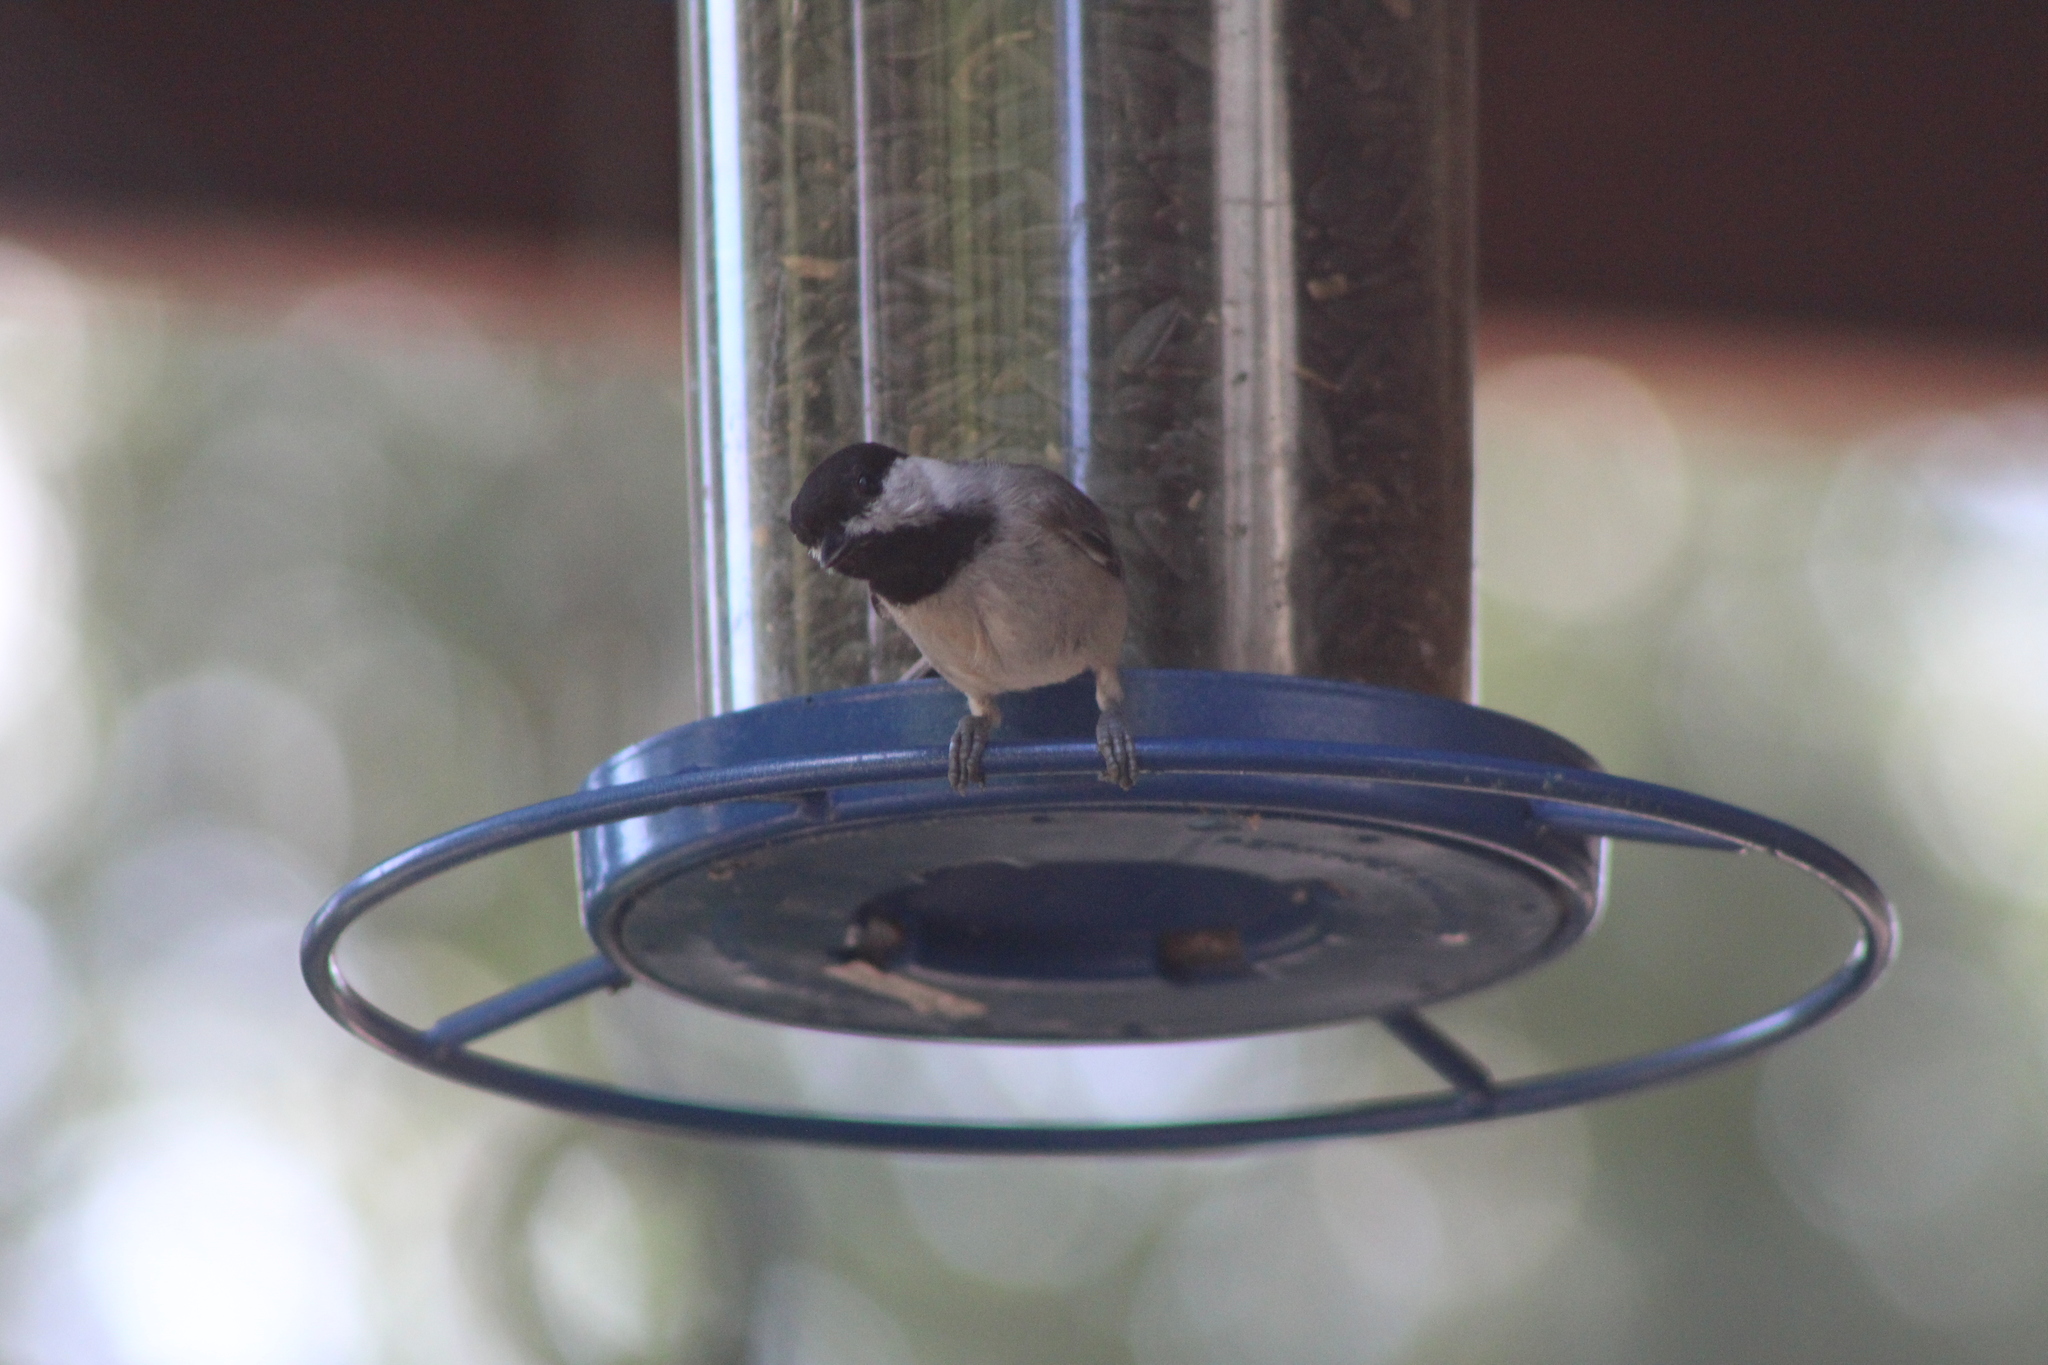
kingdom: Animalia
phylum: Chordata
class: Aves
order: Passeriformes
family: Paridae
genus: Poecile
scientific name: Poecile carolinensis
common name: Carolina chickadee
